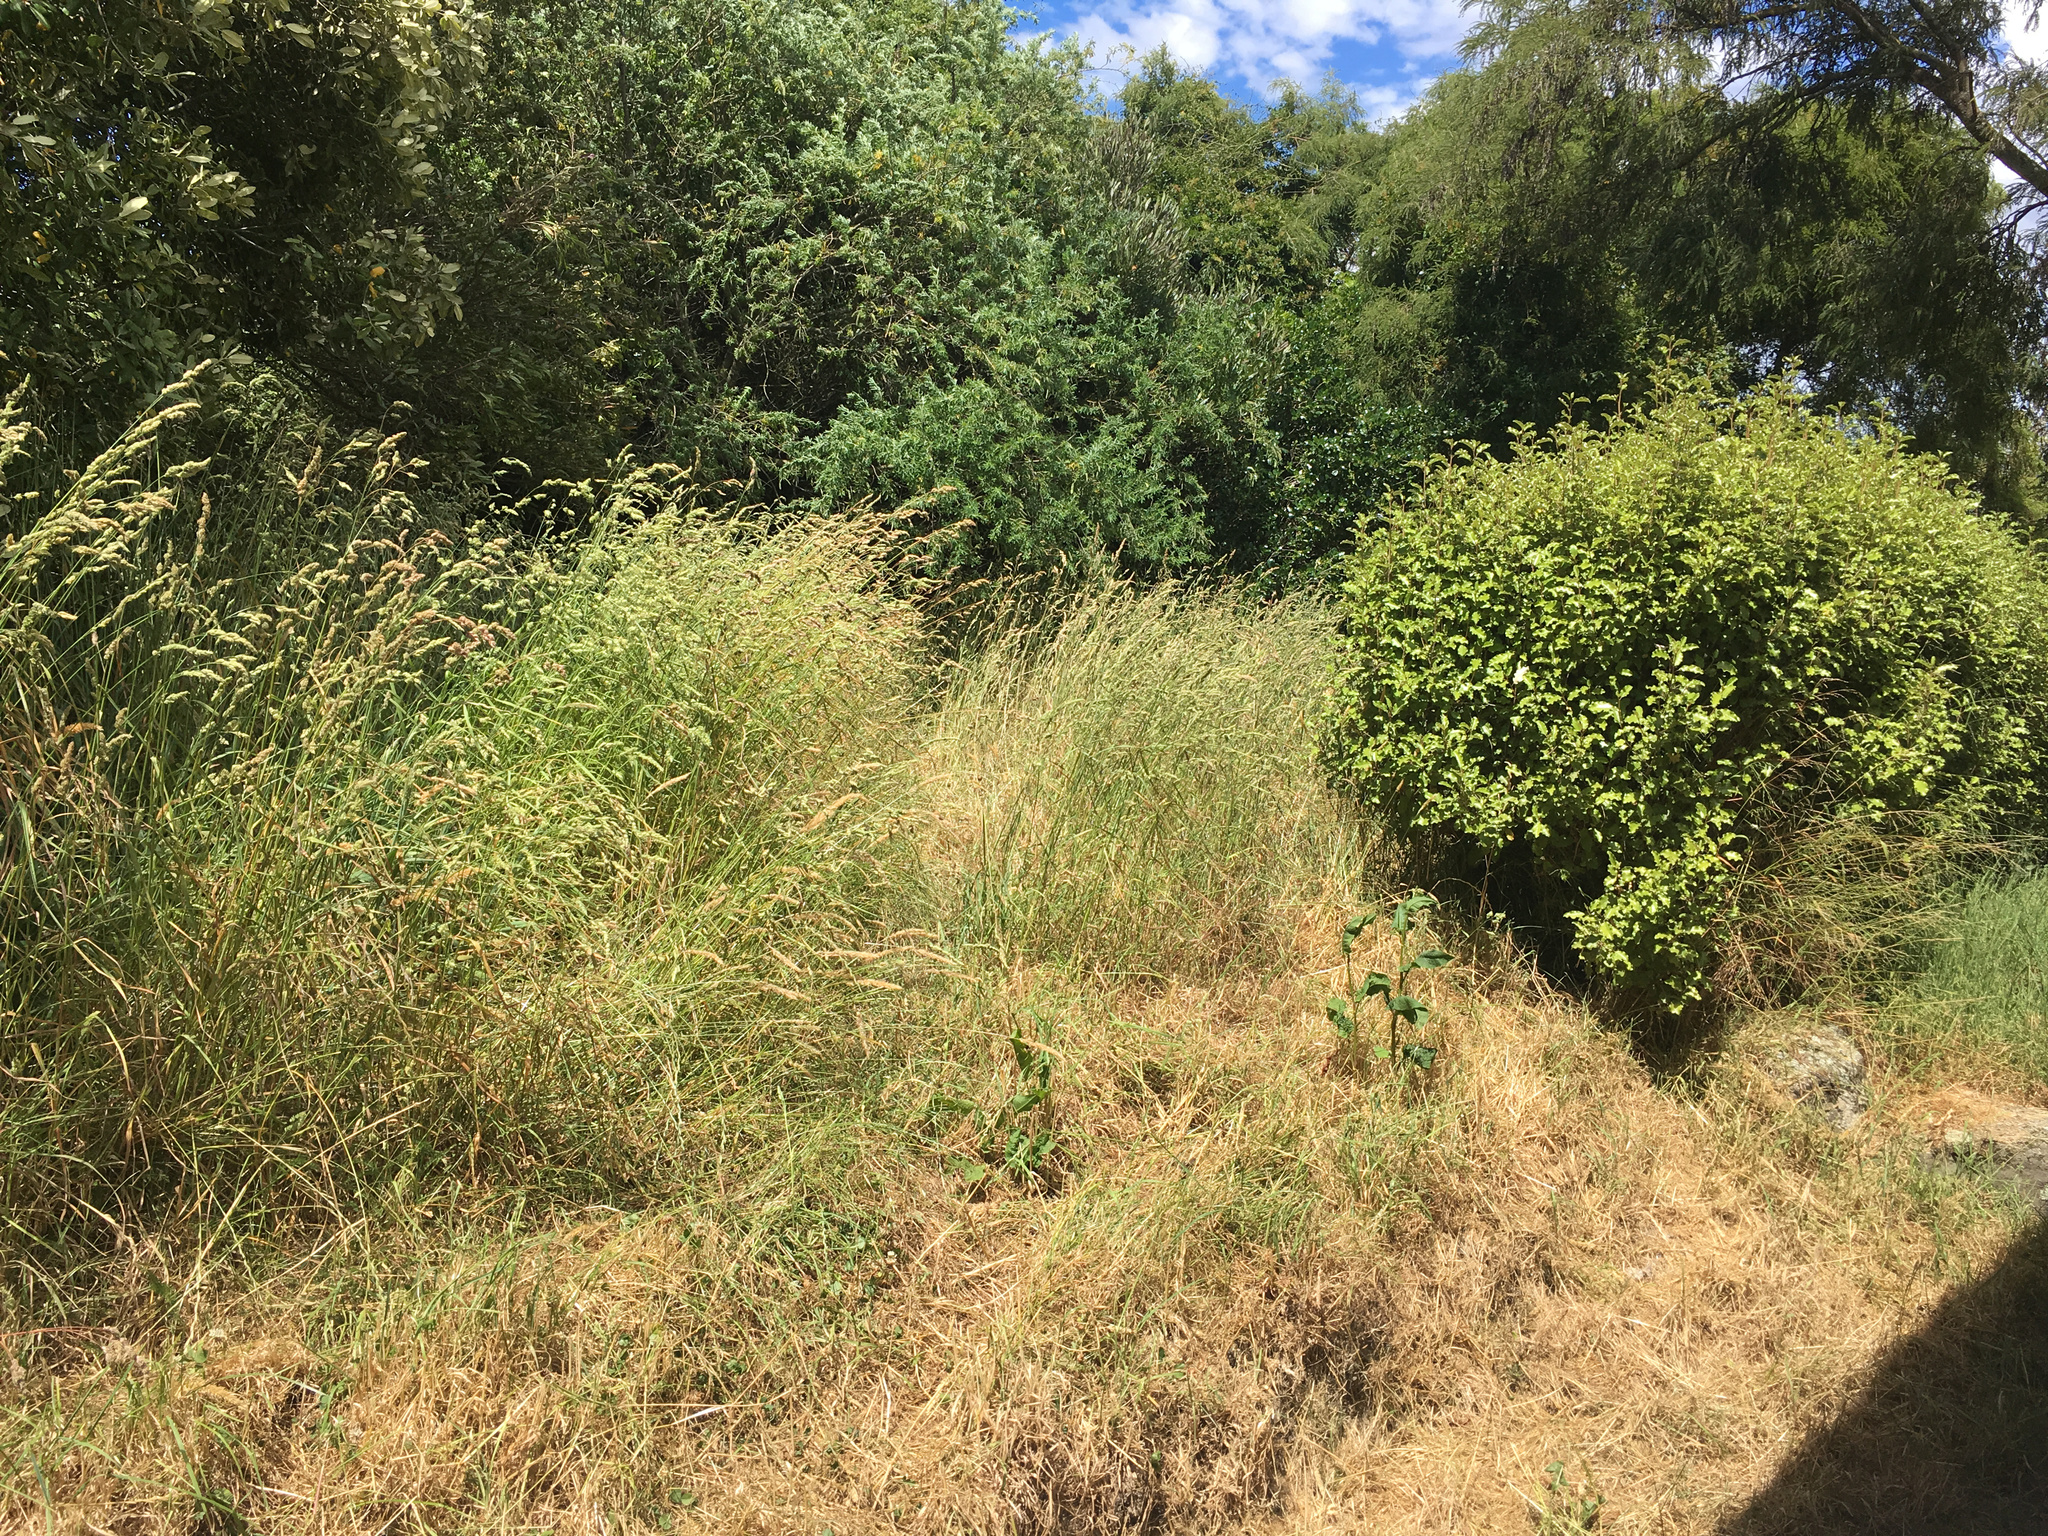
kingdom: Plantae
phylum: Tracheophyta
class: Liliopsida
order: Poales
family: Poaceae
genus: Holcus
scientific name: Holcus lanatus
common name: Yorkshire-fog
